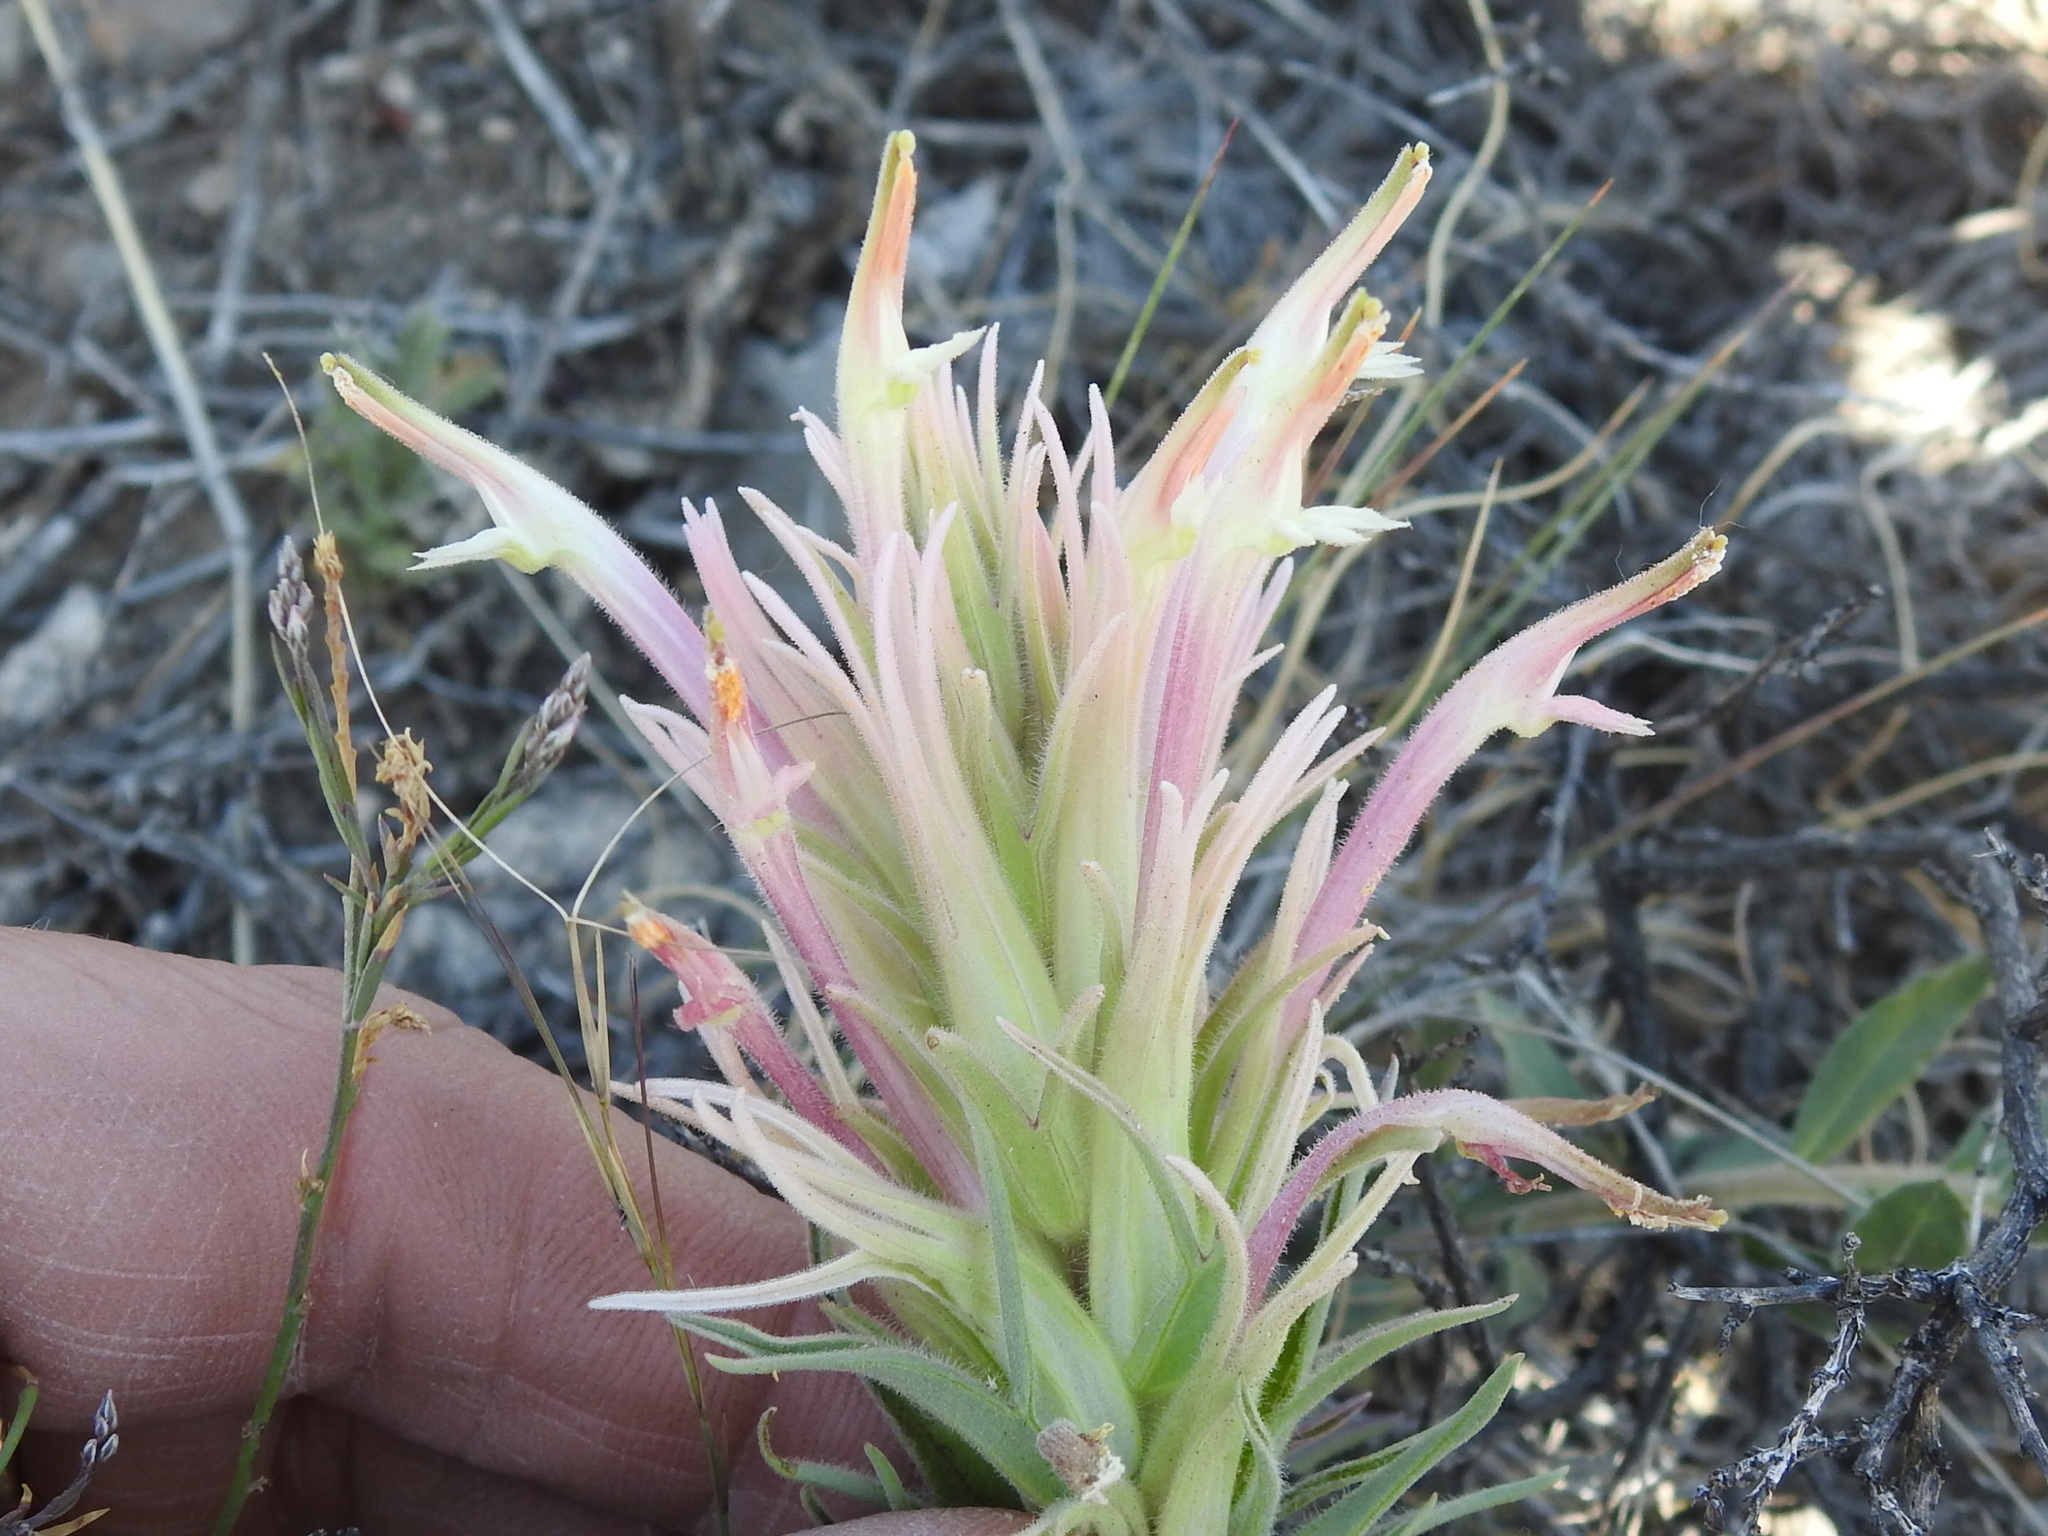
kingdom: Plantae
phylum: Tracheophyta
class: Magnoliopsida
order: Lamiales
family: Orobanchaceae
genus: Castilleja
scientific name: Castilleja sessiliflora
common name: Downy paintbrush
